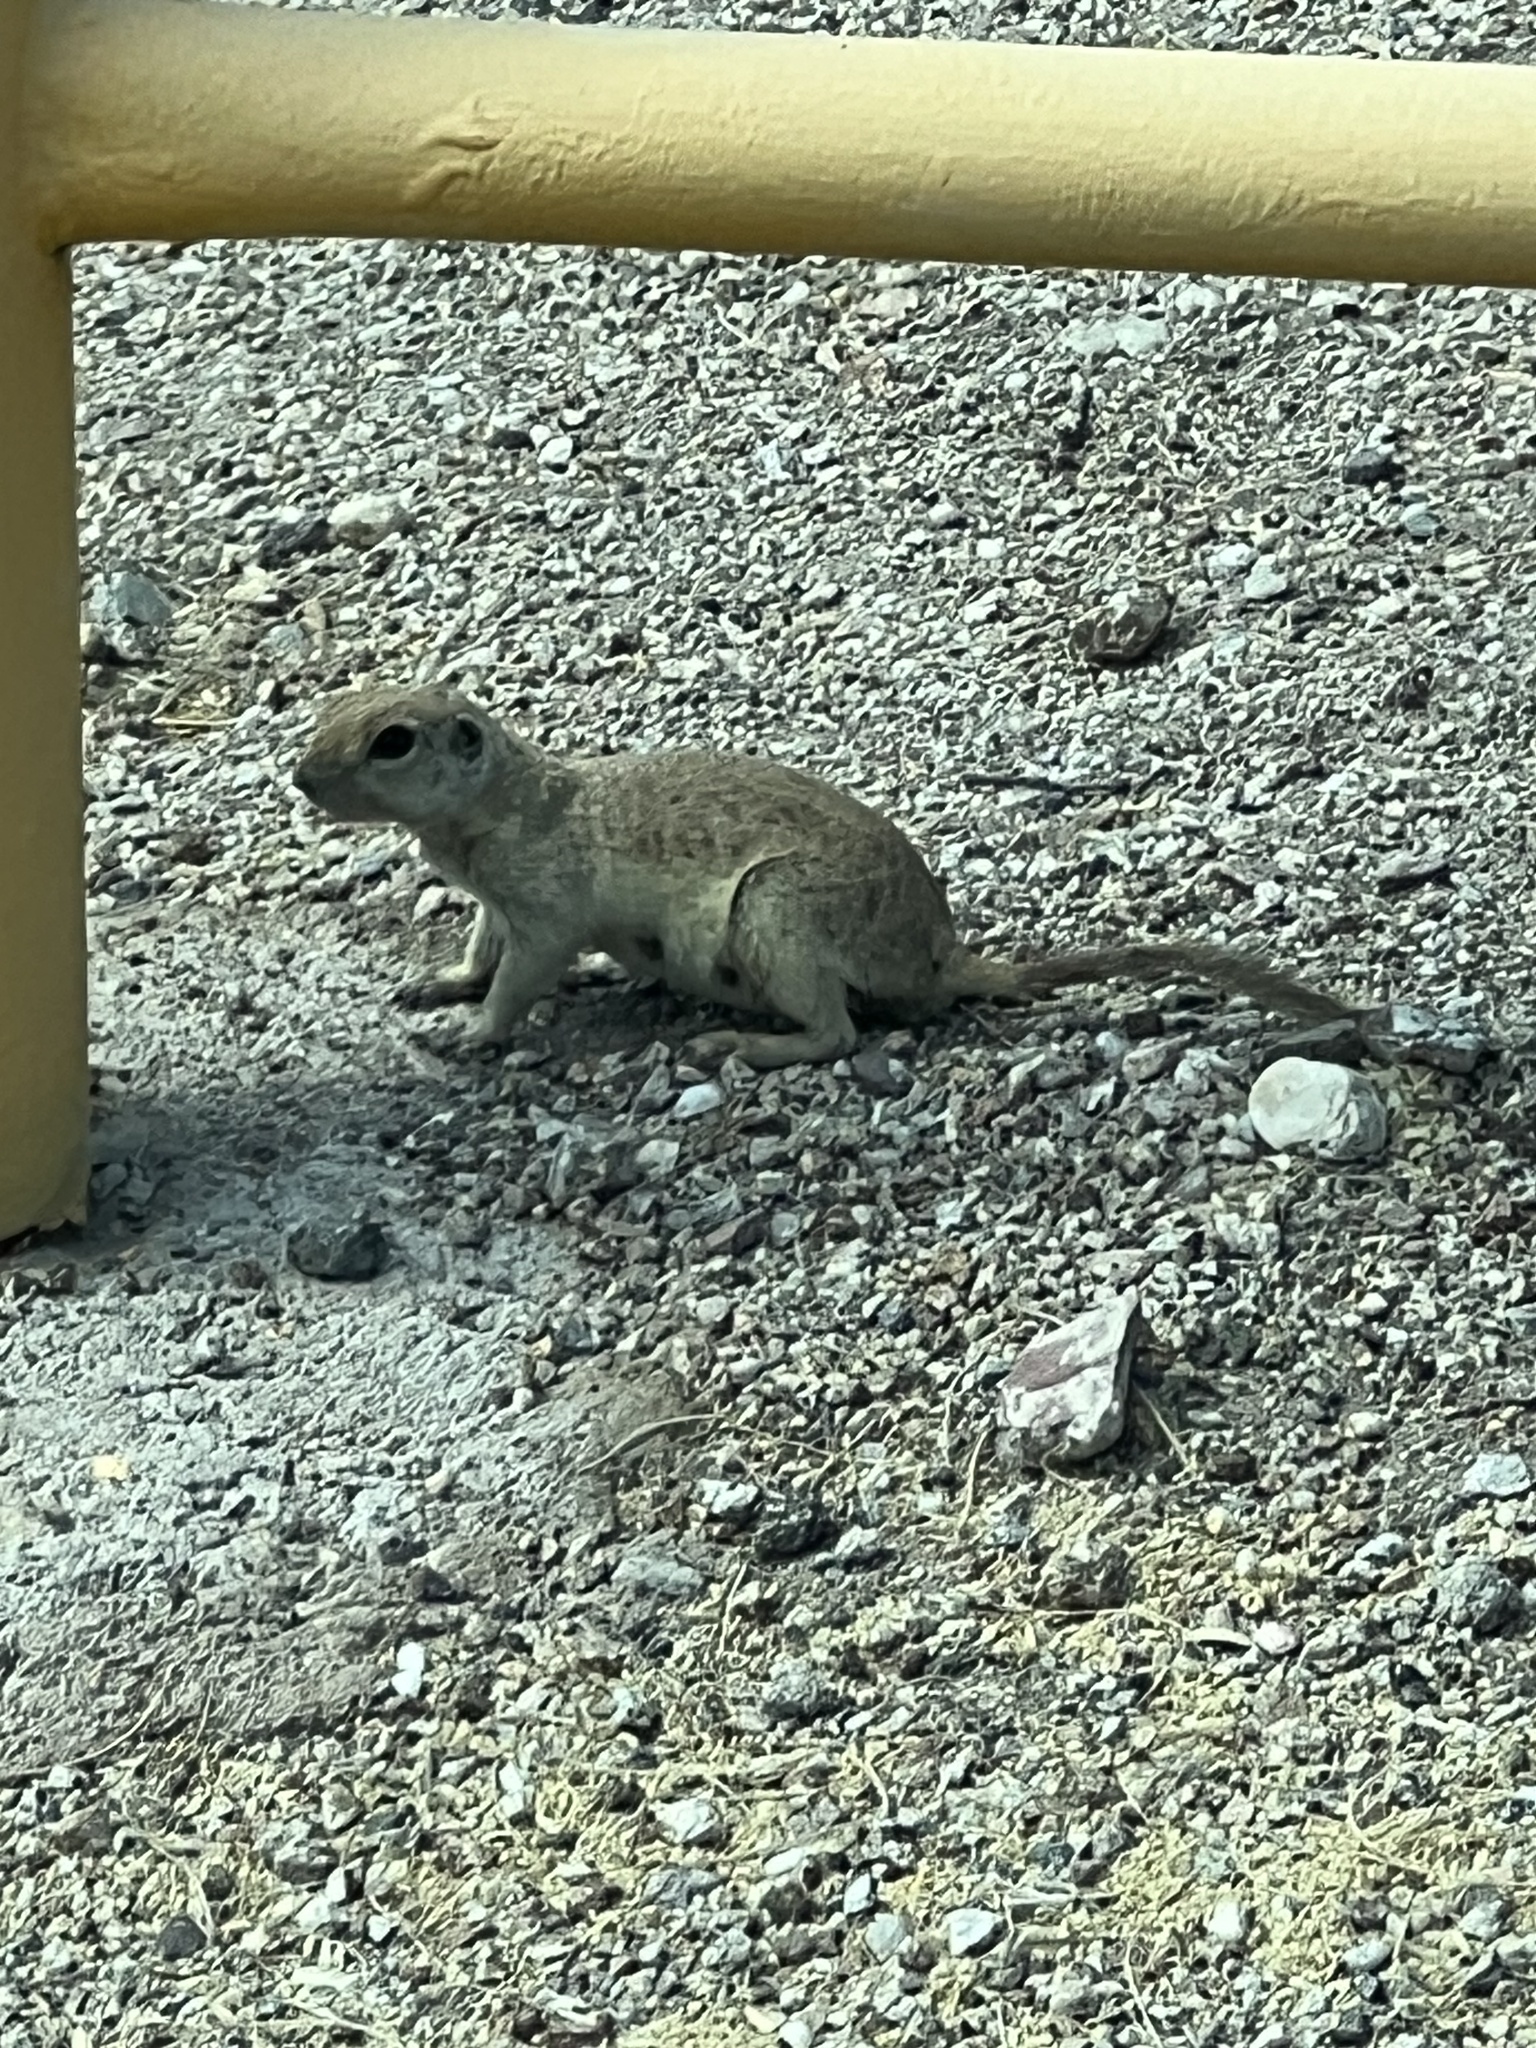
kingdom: Animalia
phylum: Chordata
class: Mammalia
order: Rodentia
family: Sciuridae
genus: Xerospermophilus
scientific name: Xerospermophilus tereticaudus
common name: Round-tailed ground squirrel
